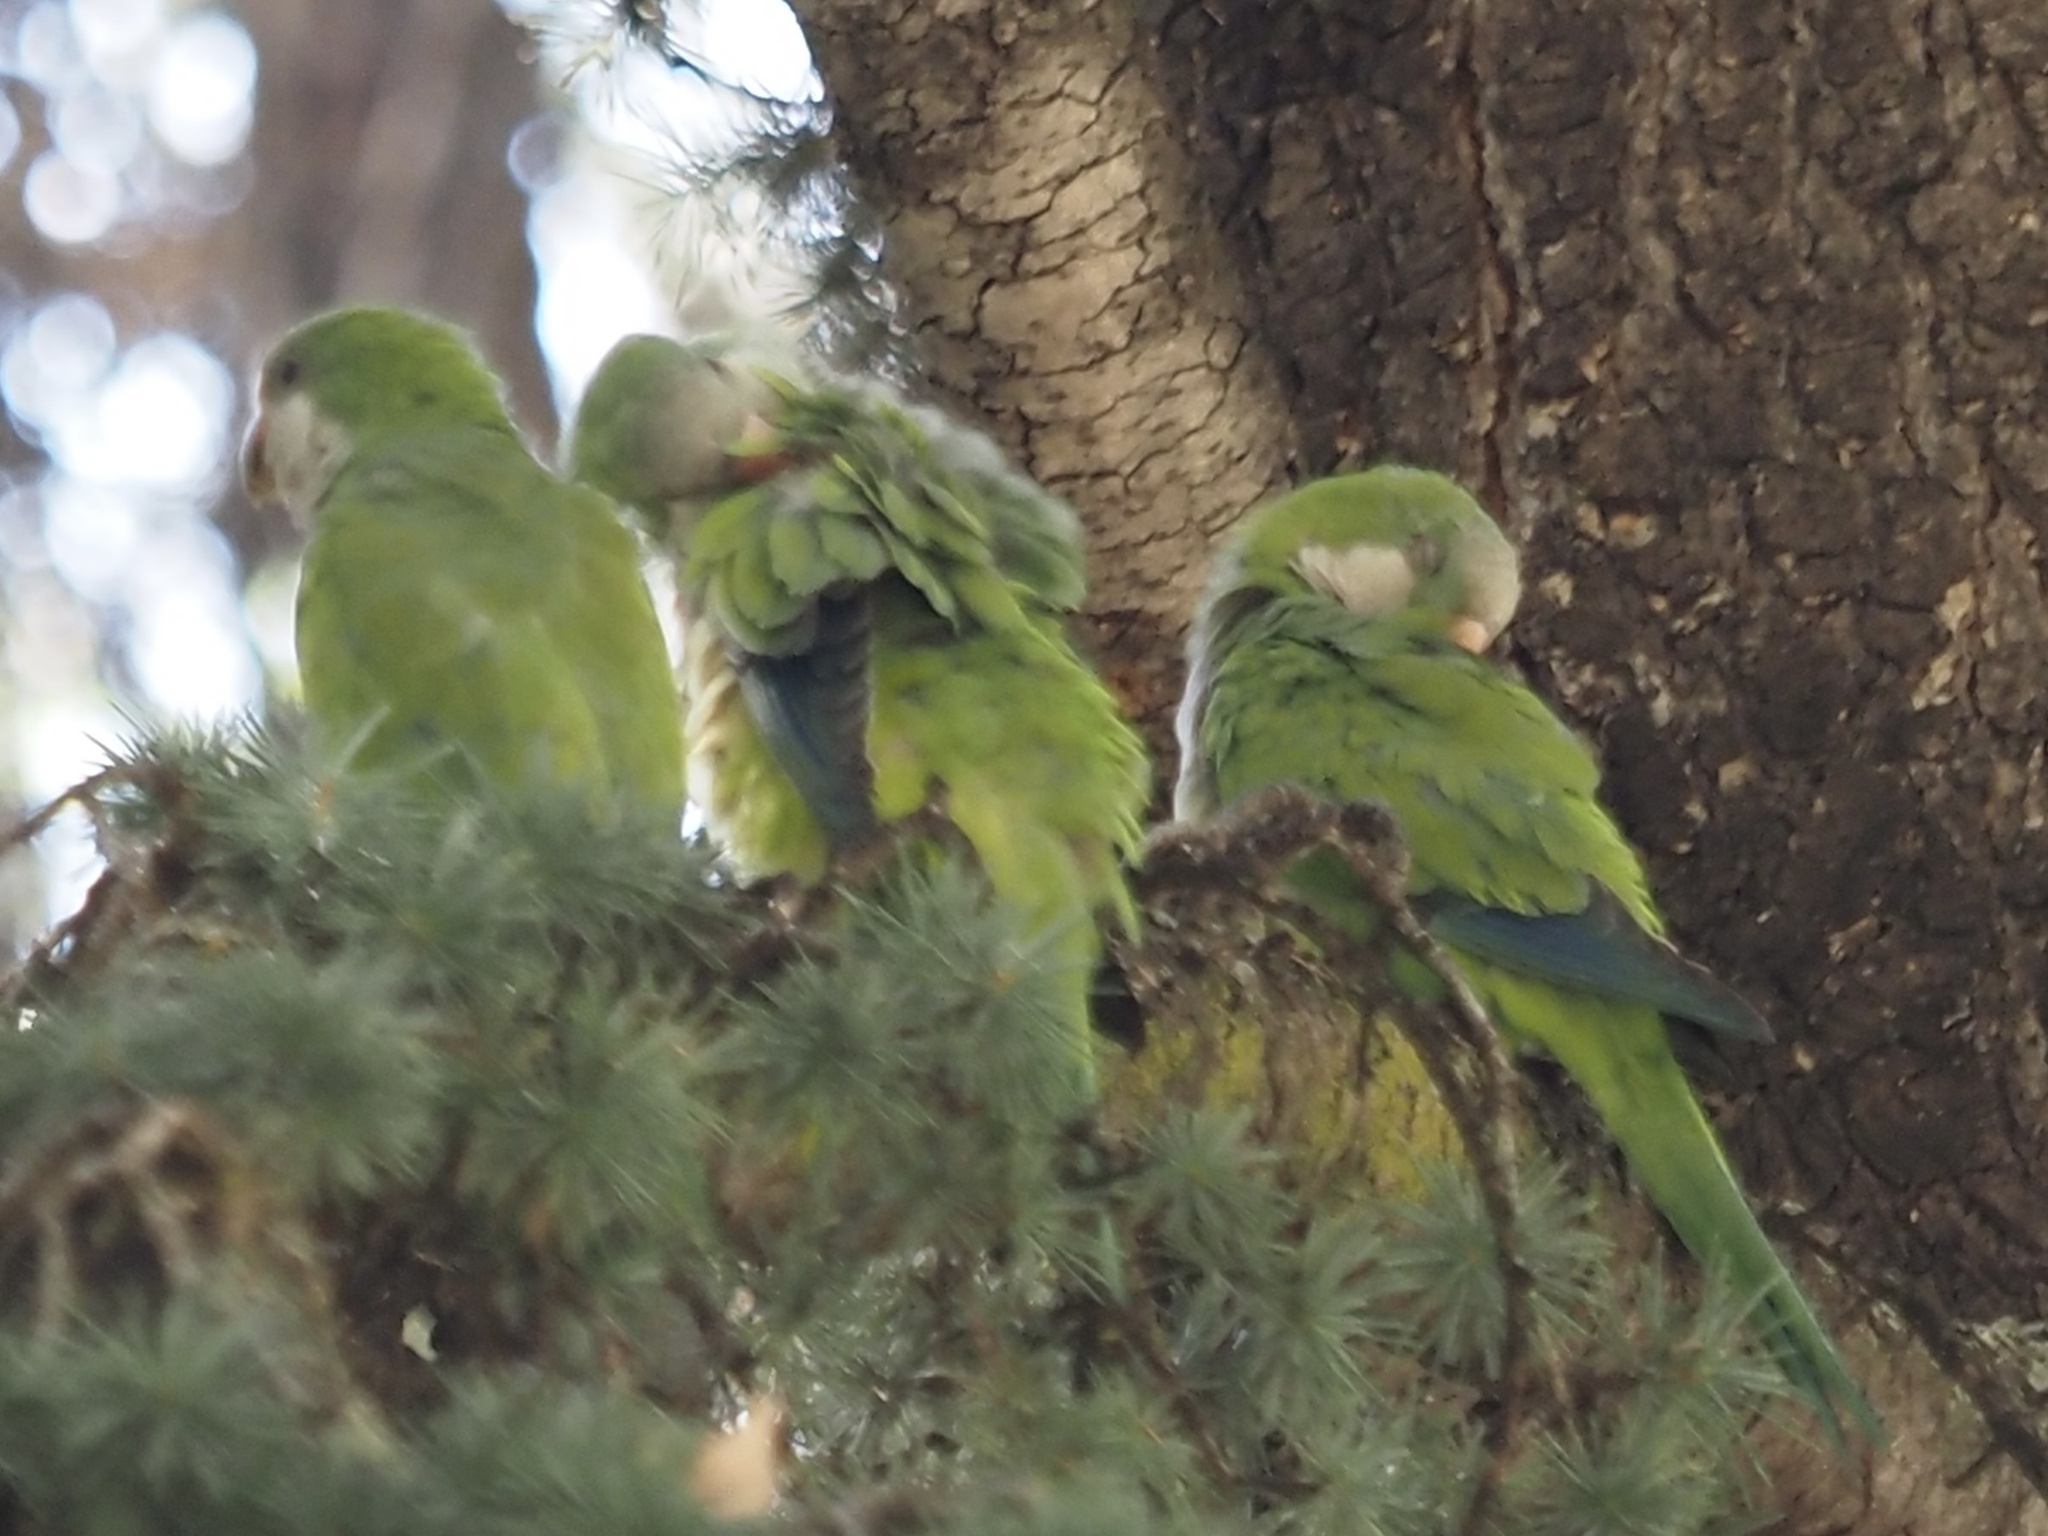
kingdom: Animalia
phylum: Chordata
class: Aves
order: Psittaciformes
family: Psittacidae
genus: Myiopsitta
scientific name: Myiopsitta monachus
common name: Monk parakeet
